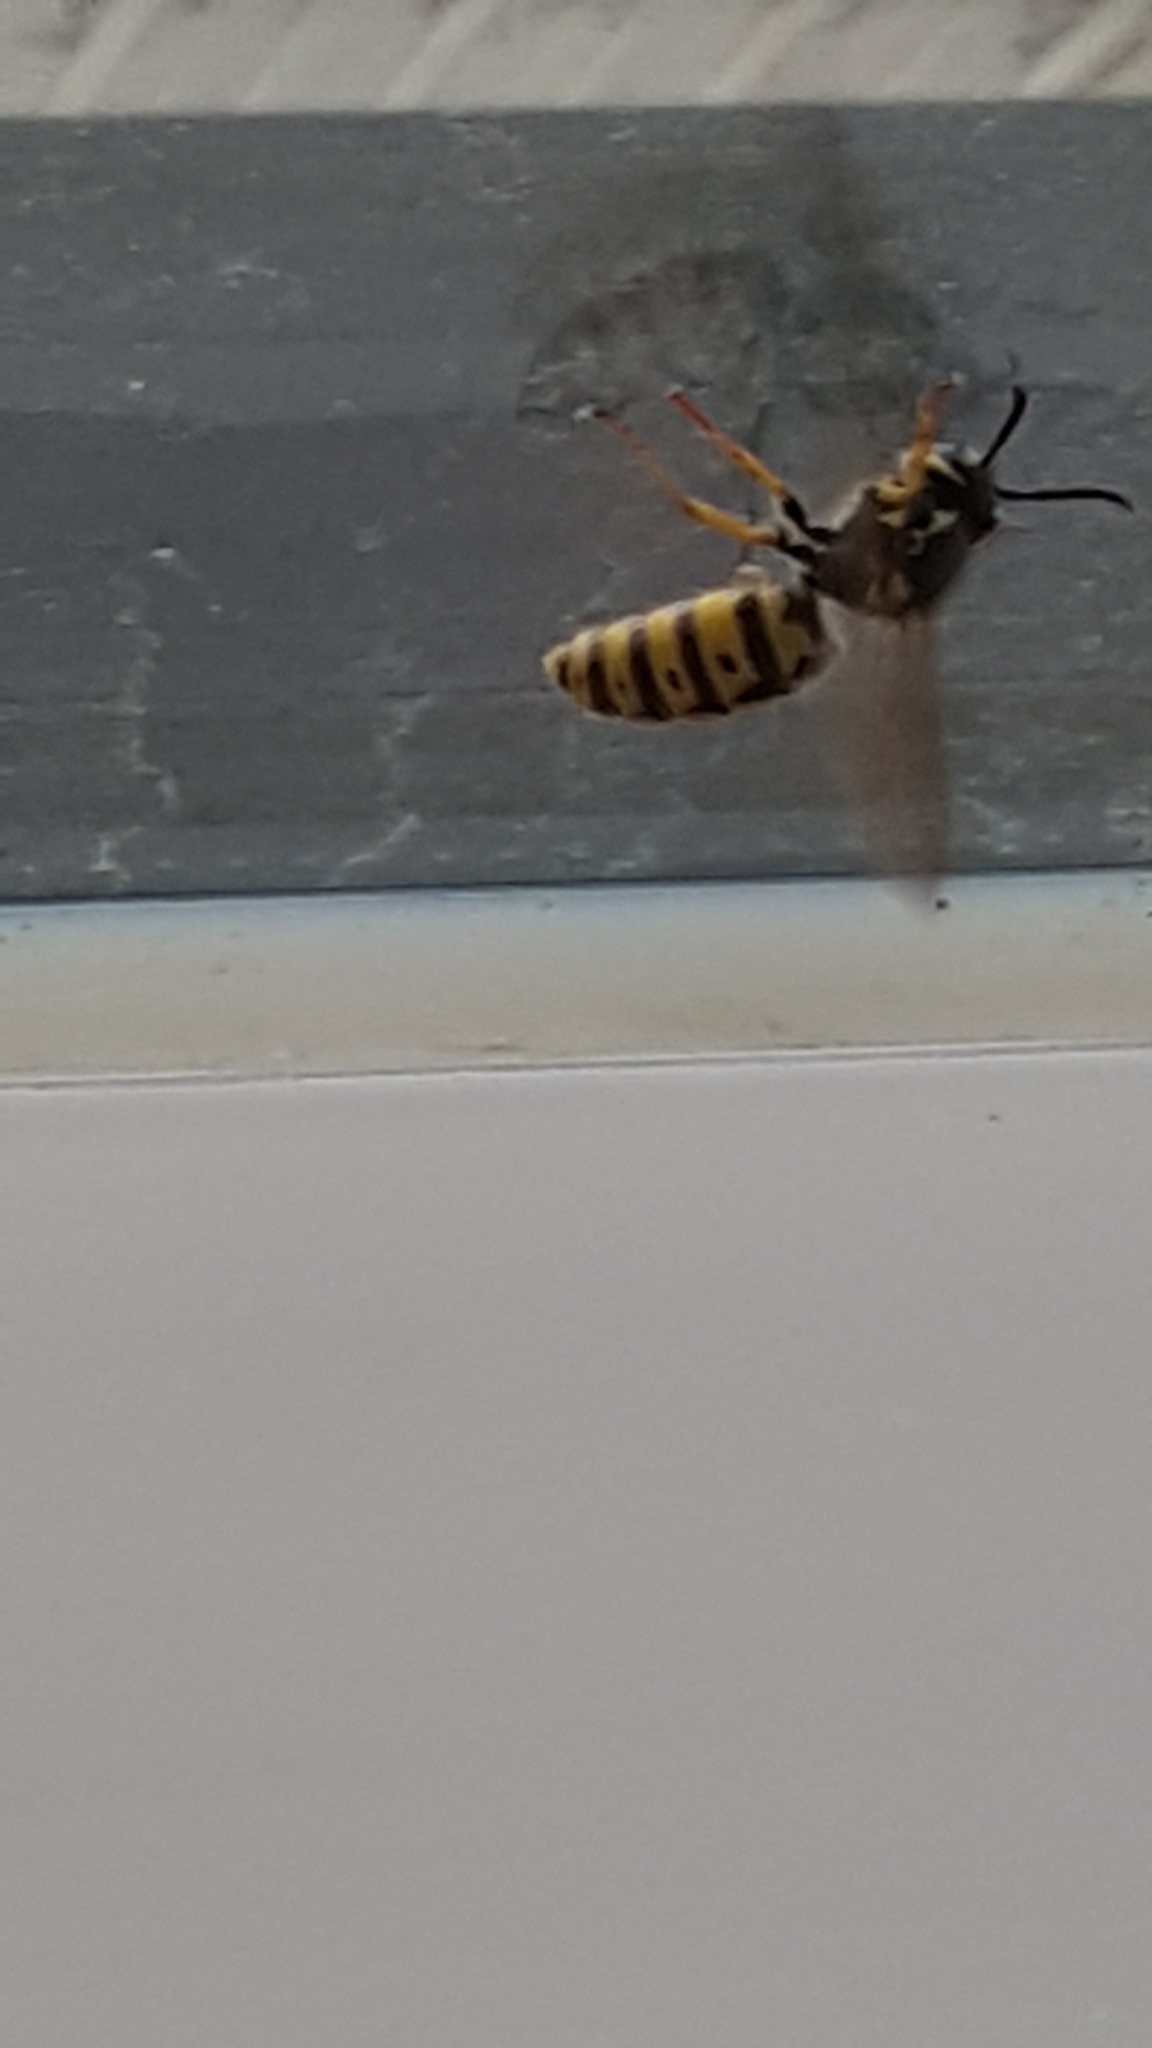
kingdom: Animalia
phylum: Arthropoda
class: Insecta
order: Hymenoptera
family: Vespidae
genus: Vespula
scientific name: Vespula germanica
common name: German wasp
